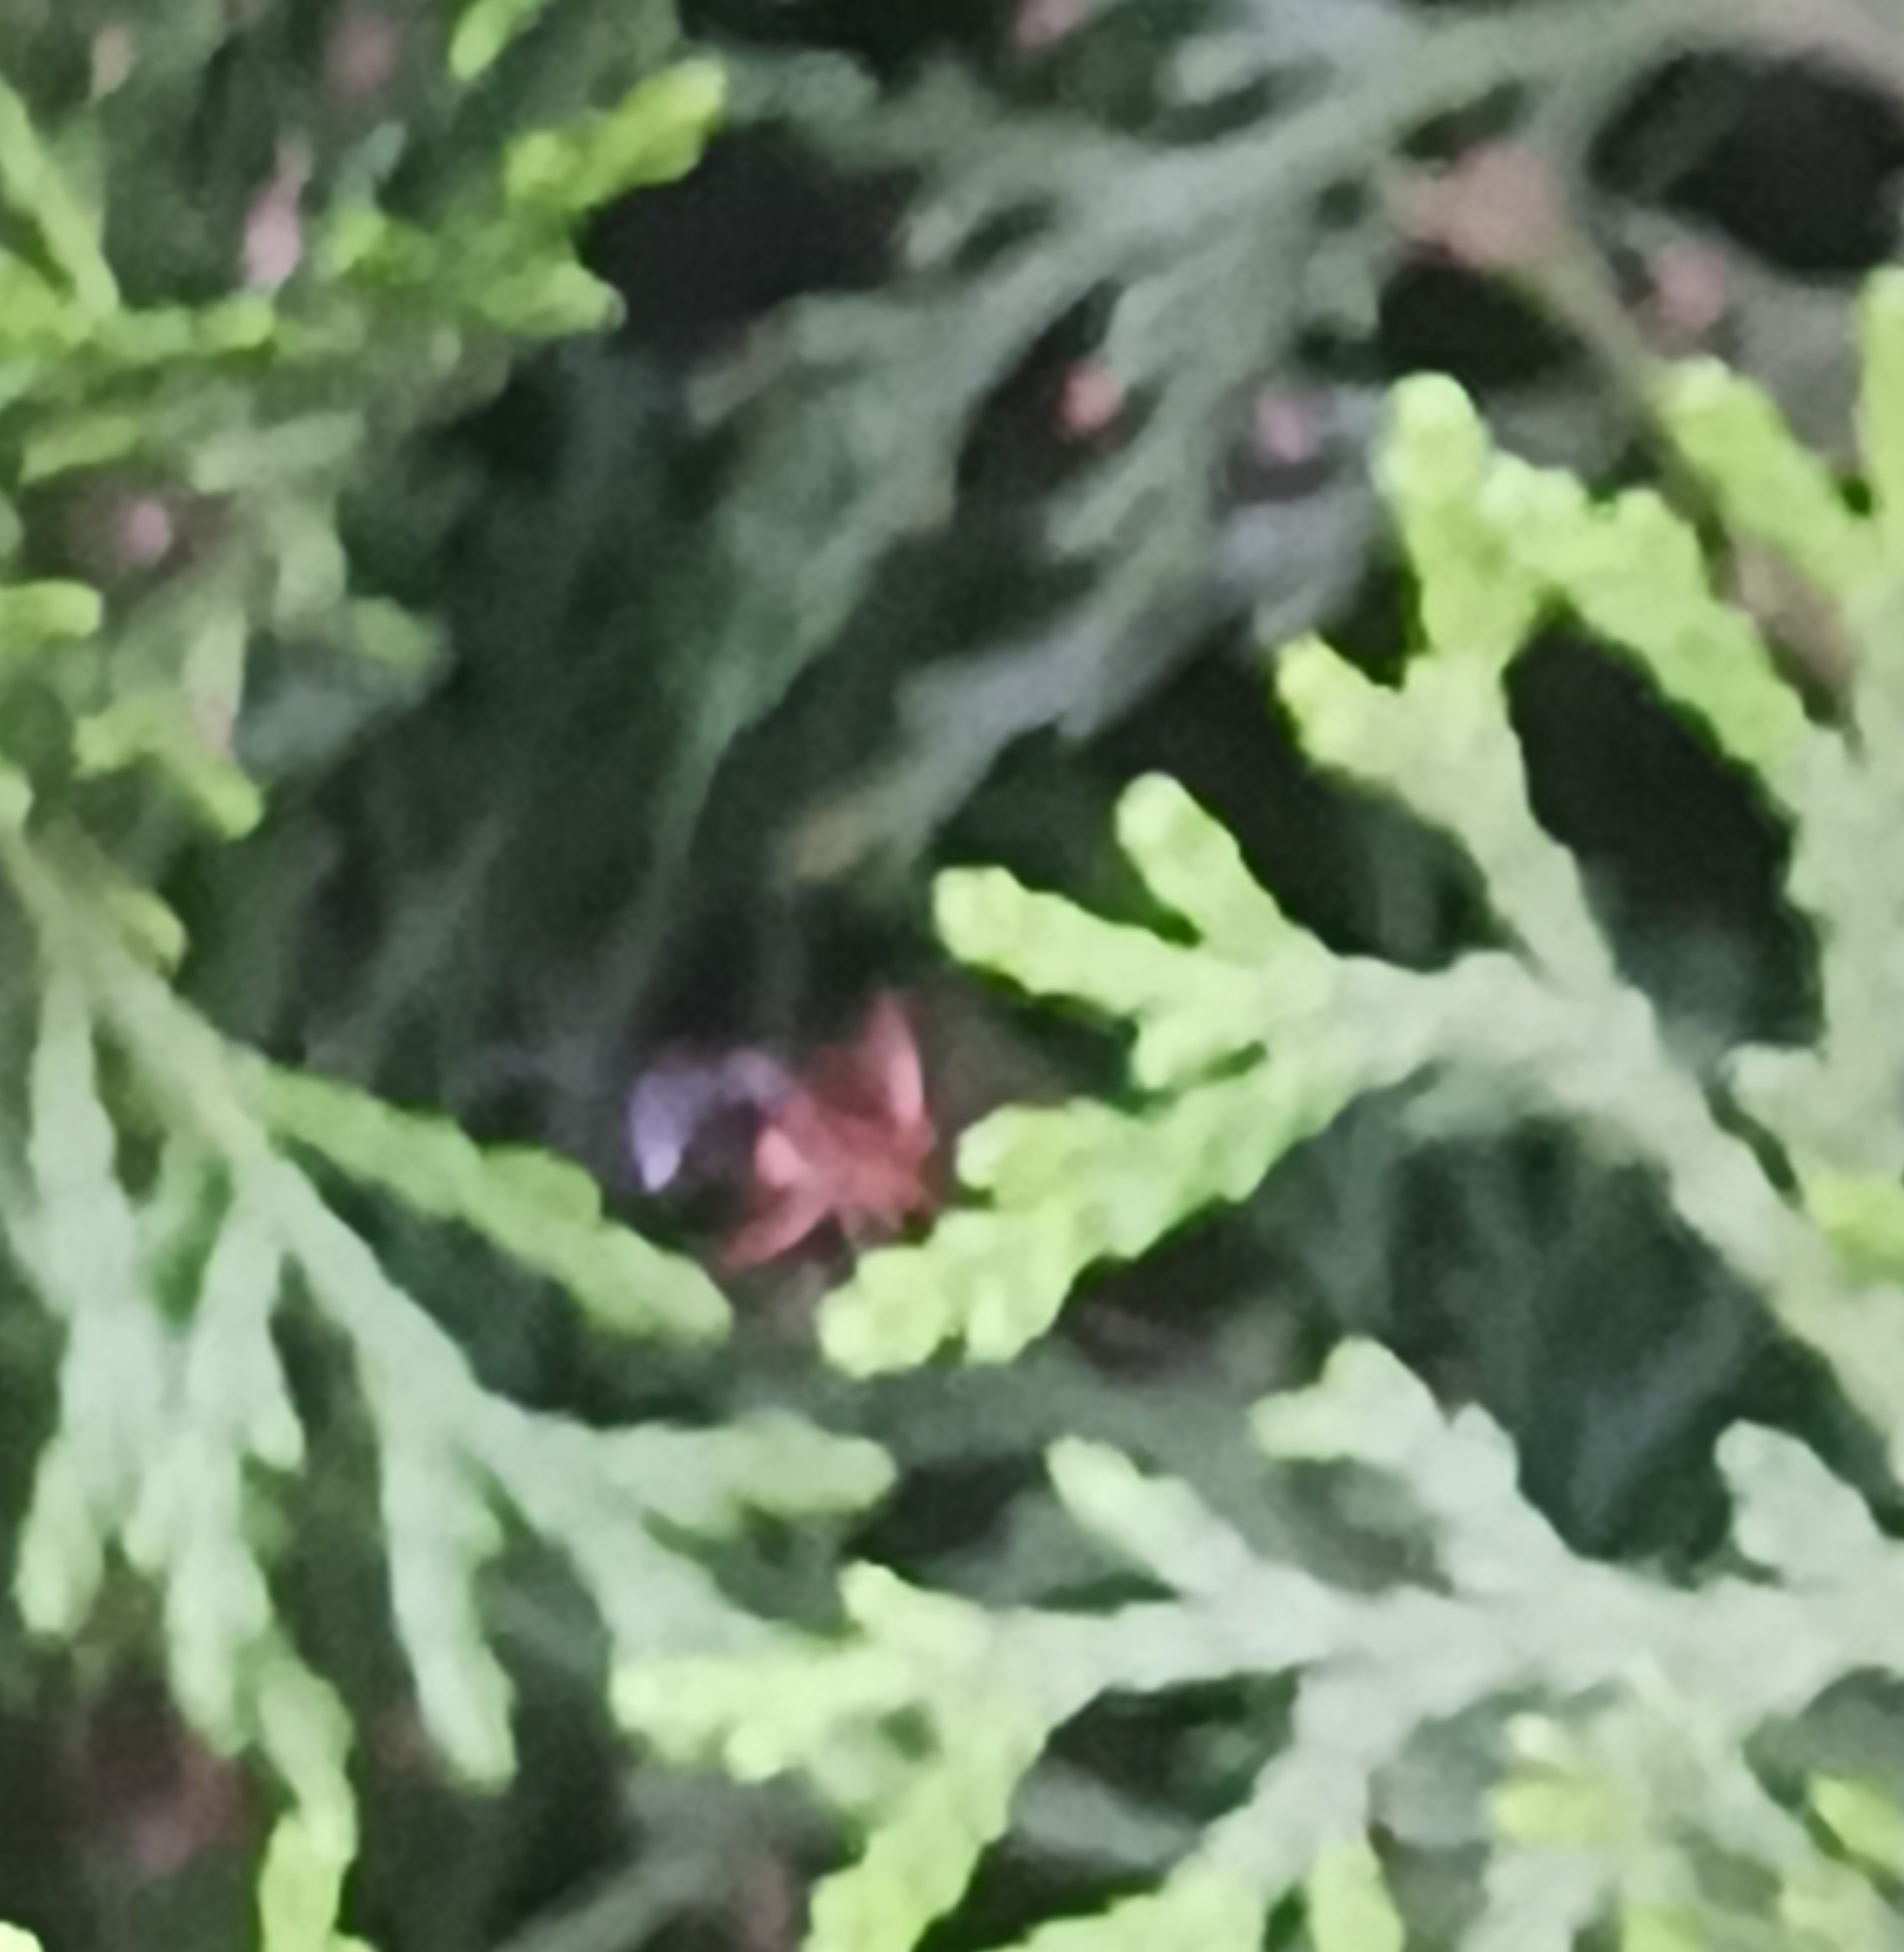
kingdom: Animalia
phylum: Arthropoda
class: Insecta
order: Hymenoptera
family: Formicidae
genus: Camponotus
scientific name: Camponotus rufipes
